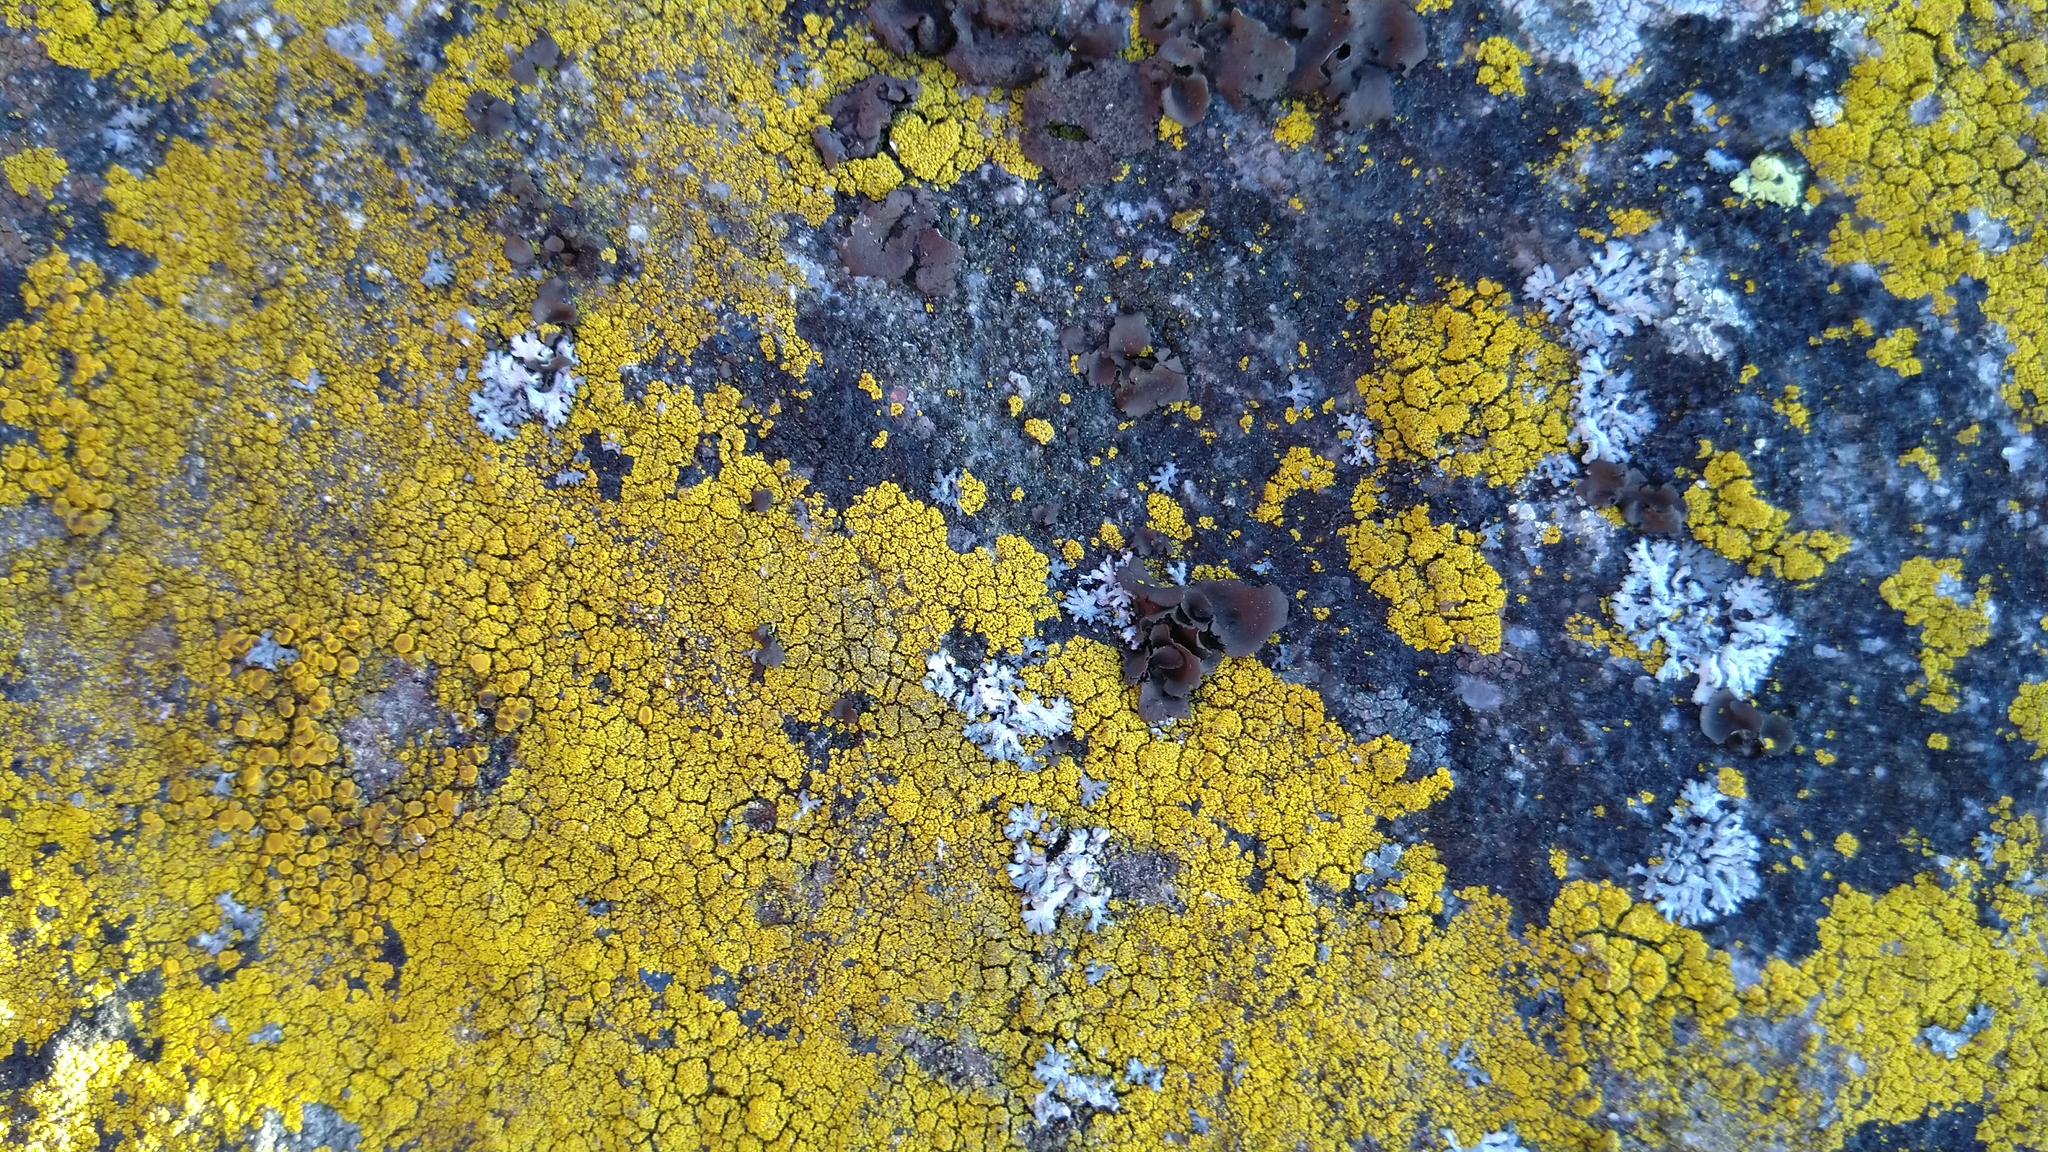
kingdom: Fungi
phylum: Ascomycota
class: Candelariomycetes
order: Candelariales
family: Candelariaceae
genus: Candelariella
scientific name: Candelariella coralliza
